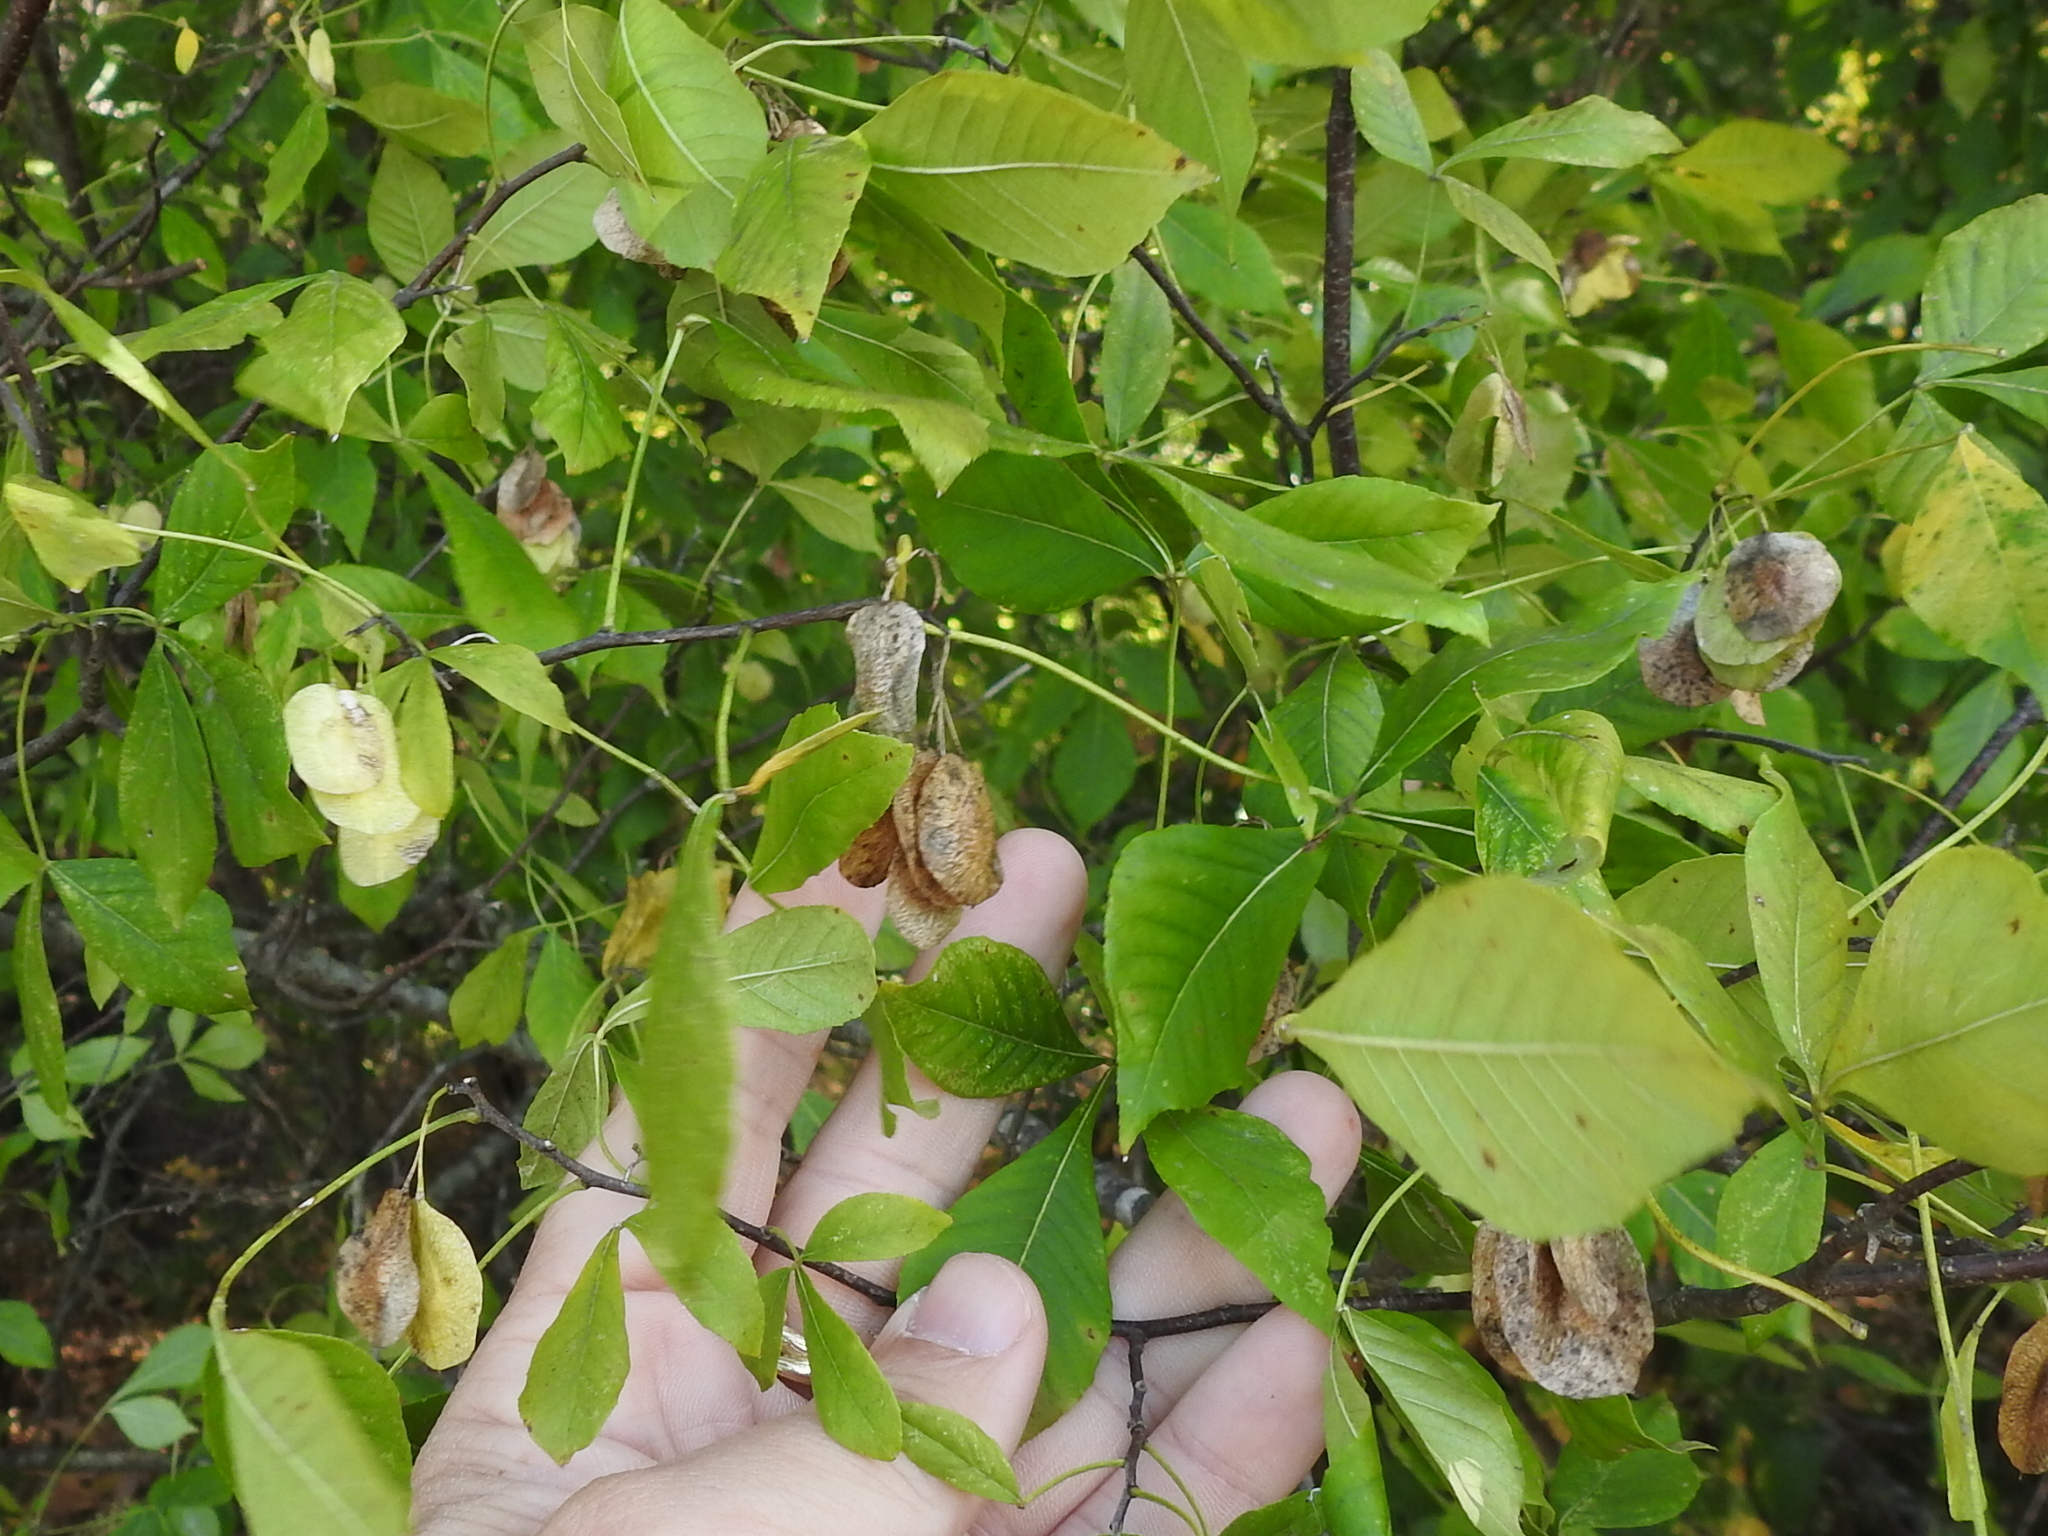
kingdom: Plantae
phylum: Tracheophyta
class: Magnoliopsida
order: Sapindales
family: Rutaceae
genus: Ptelea
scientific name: Ptelea trifoliata
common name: Common hop-tree
